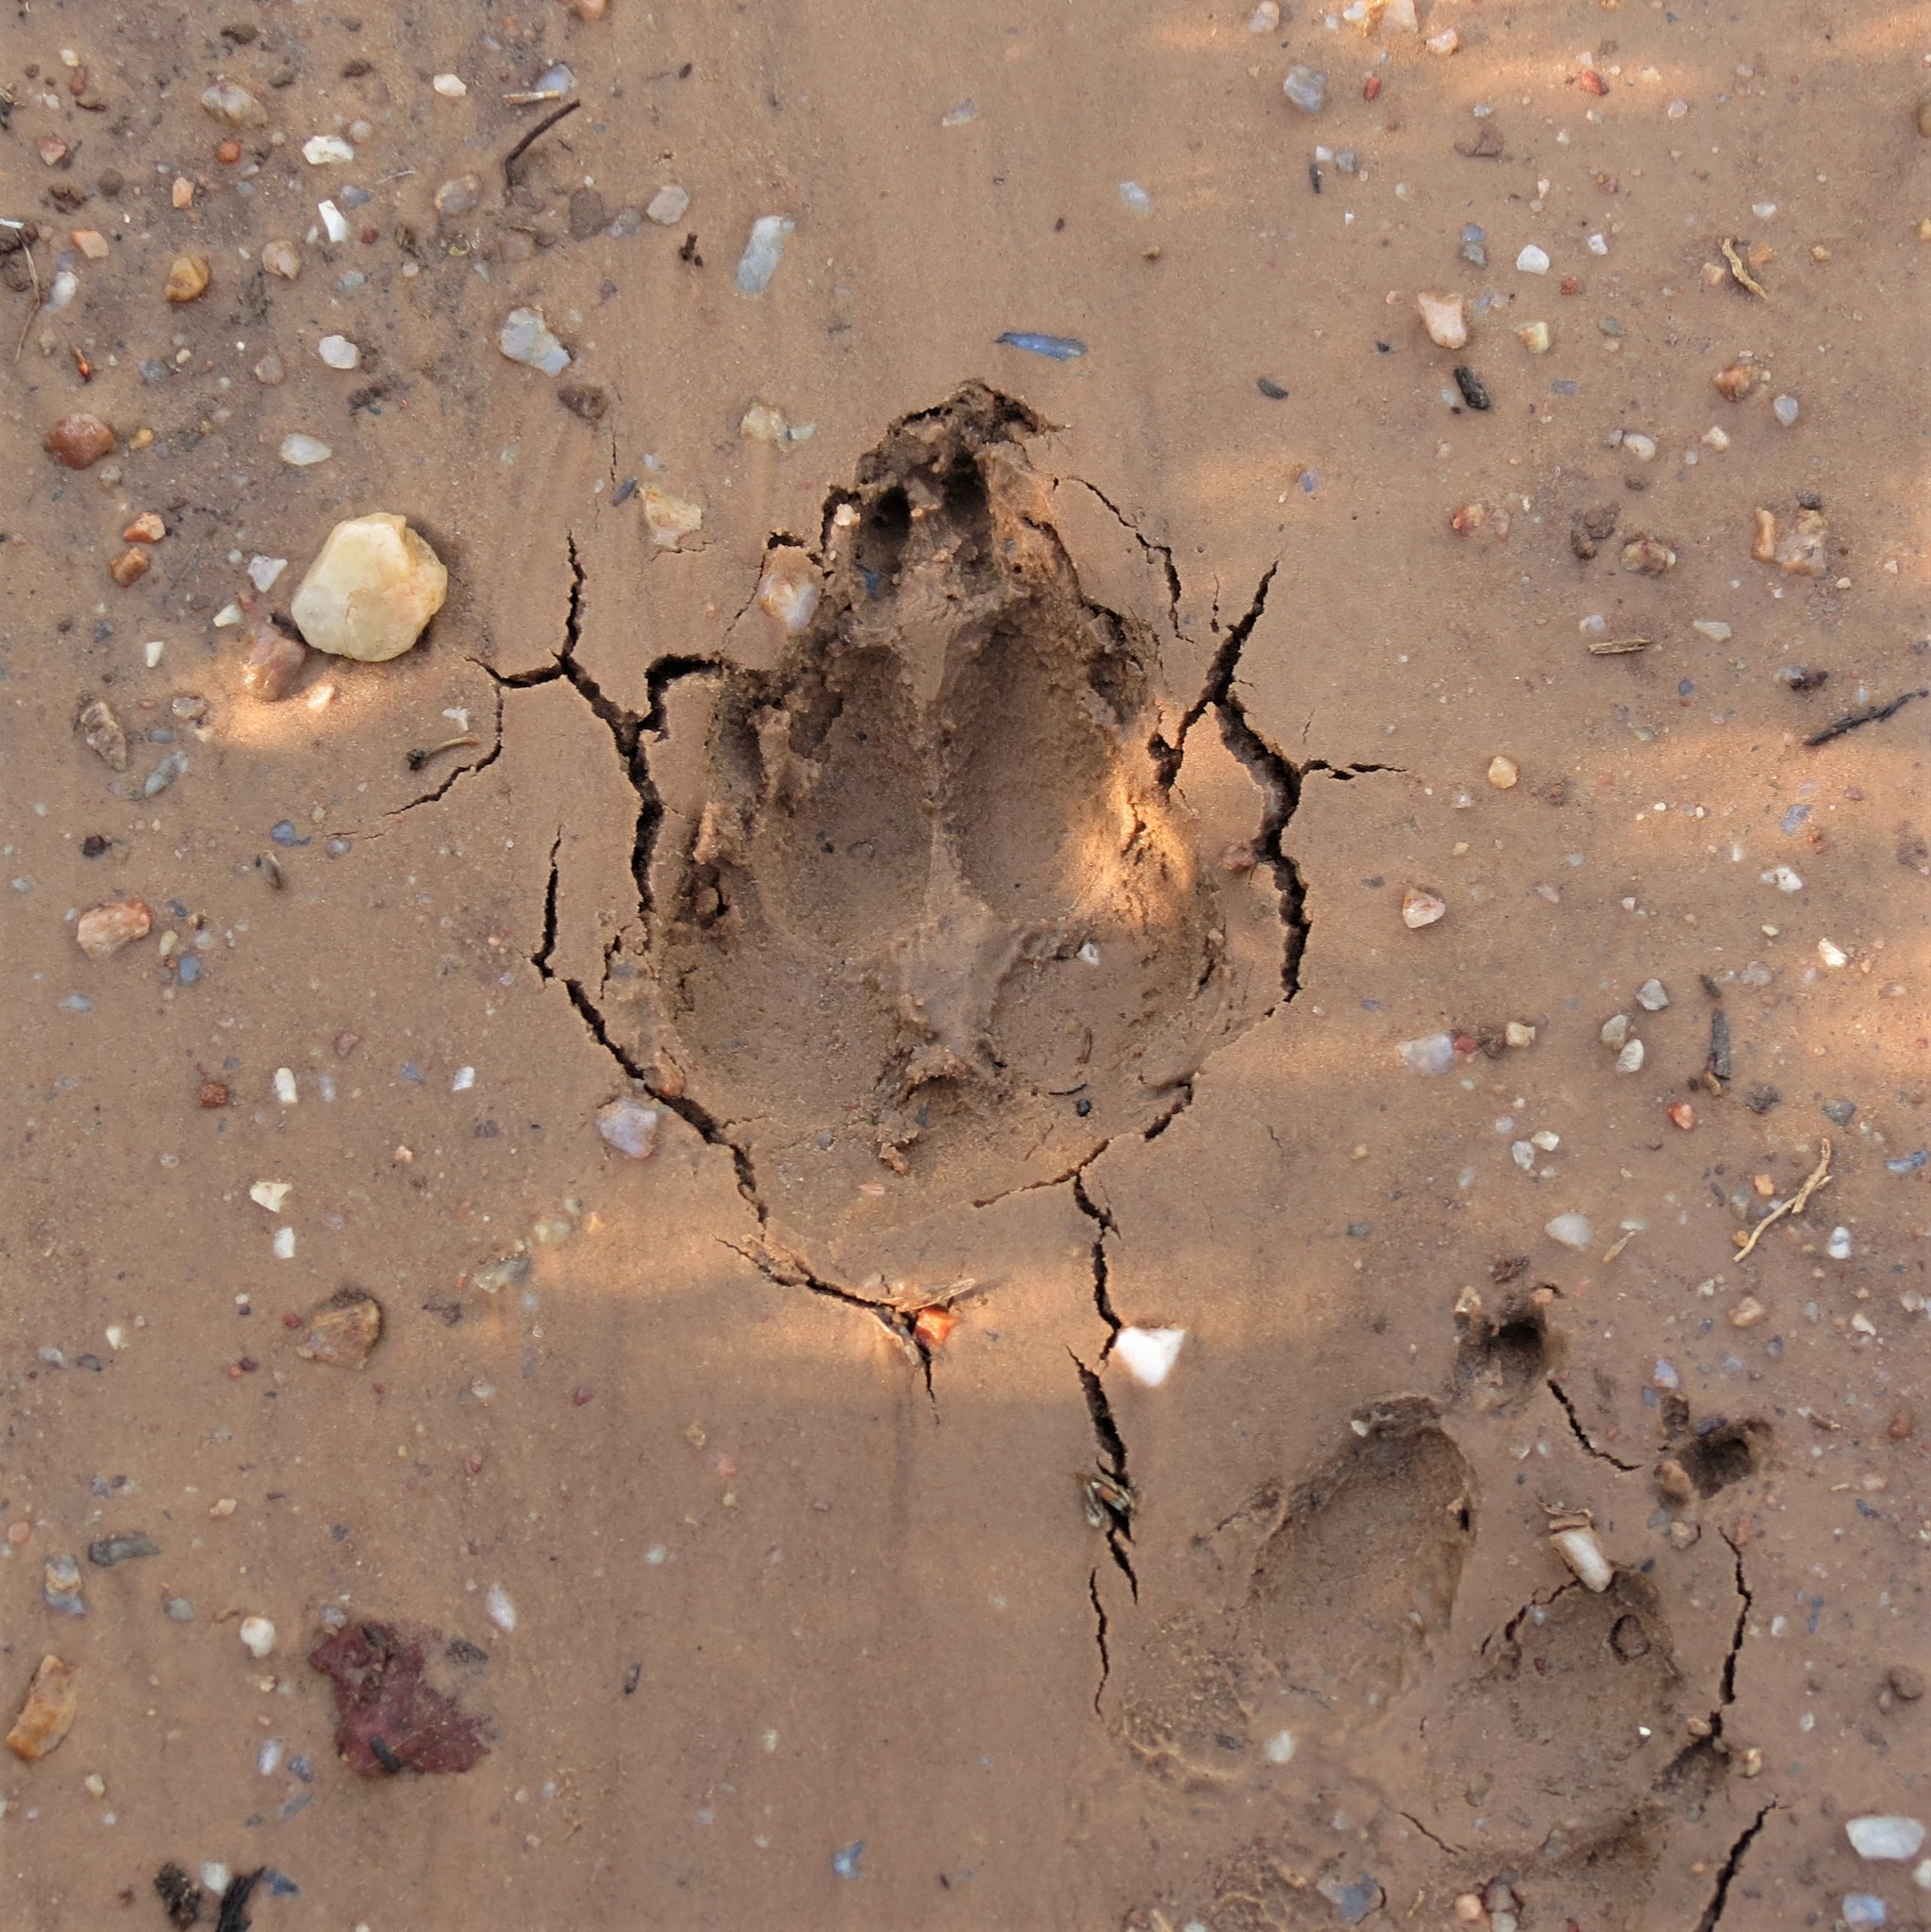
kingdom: Animalia
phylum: Chordata
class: Mammalia
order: Carnivora
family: Hyaenidae
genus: Proteles
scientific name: Proteles cristata
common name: Aardwolf
